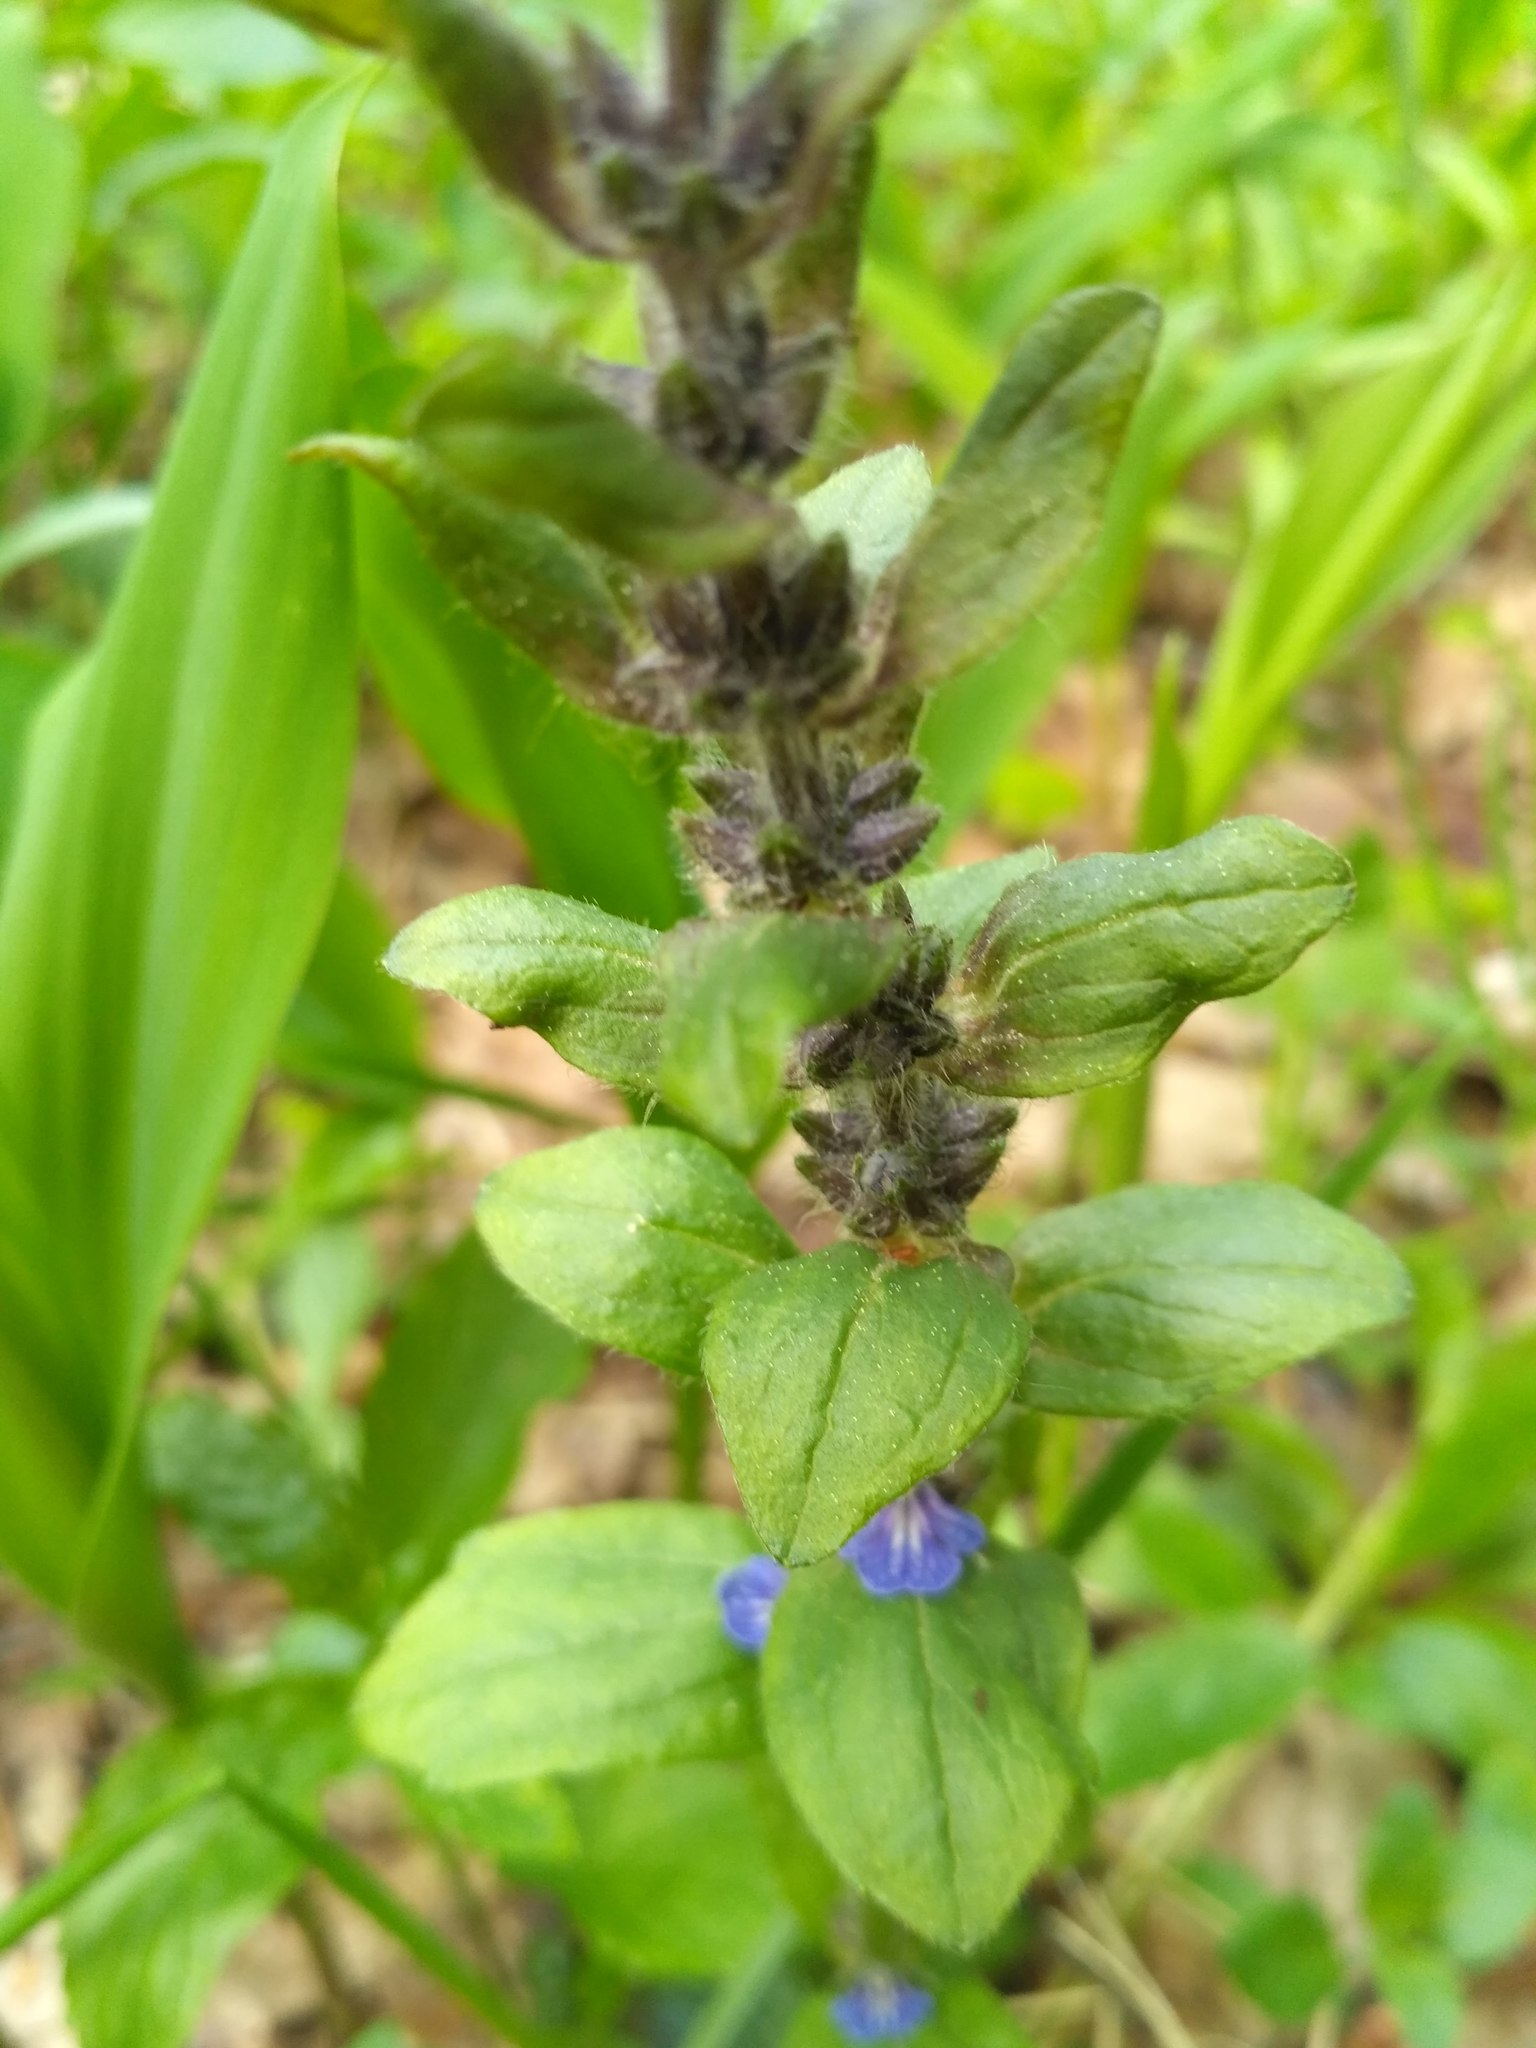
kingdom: Plantae
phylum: Tracheophyta
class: Magnoliopsida
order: Lamiales
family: Lamiaceae
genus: Ajuga
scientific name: Ajuga reptans
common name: Bugle
